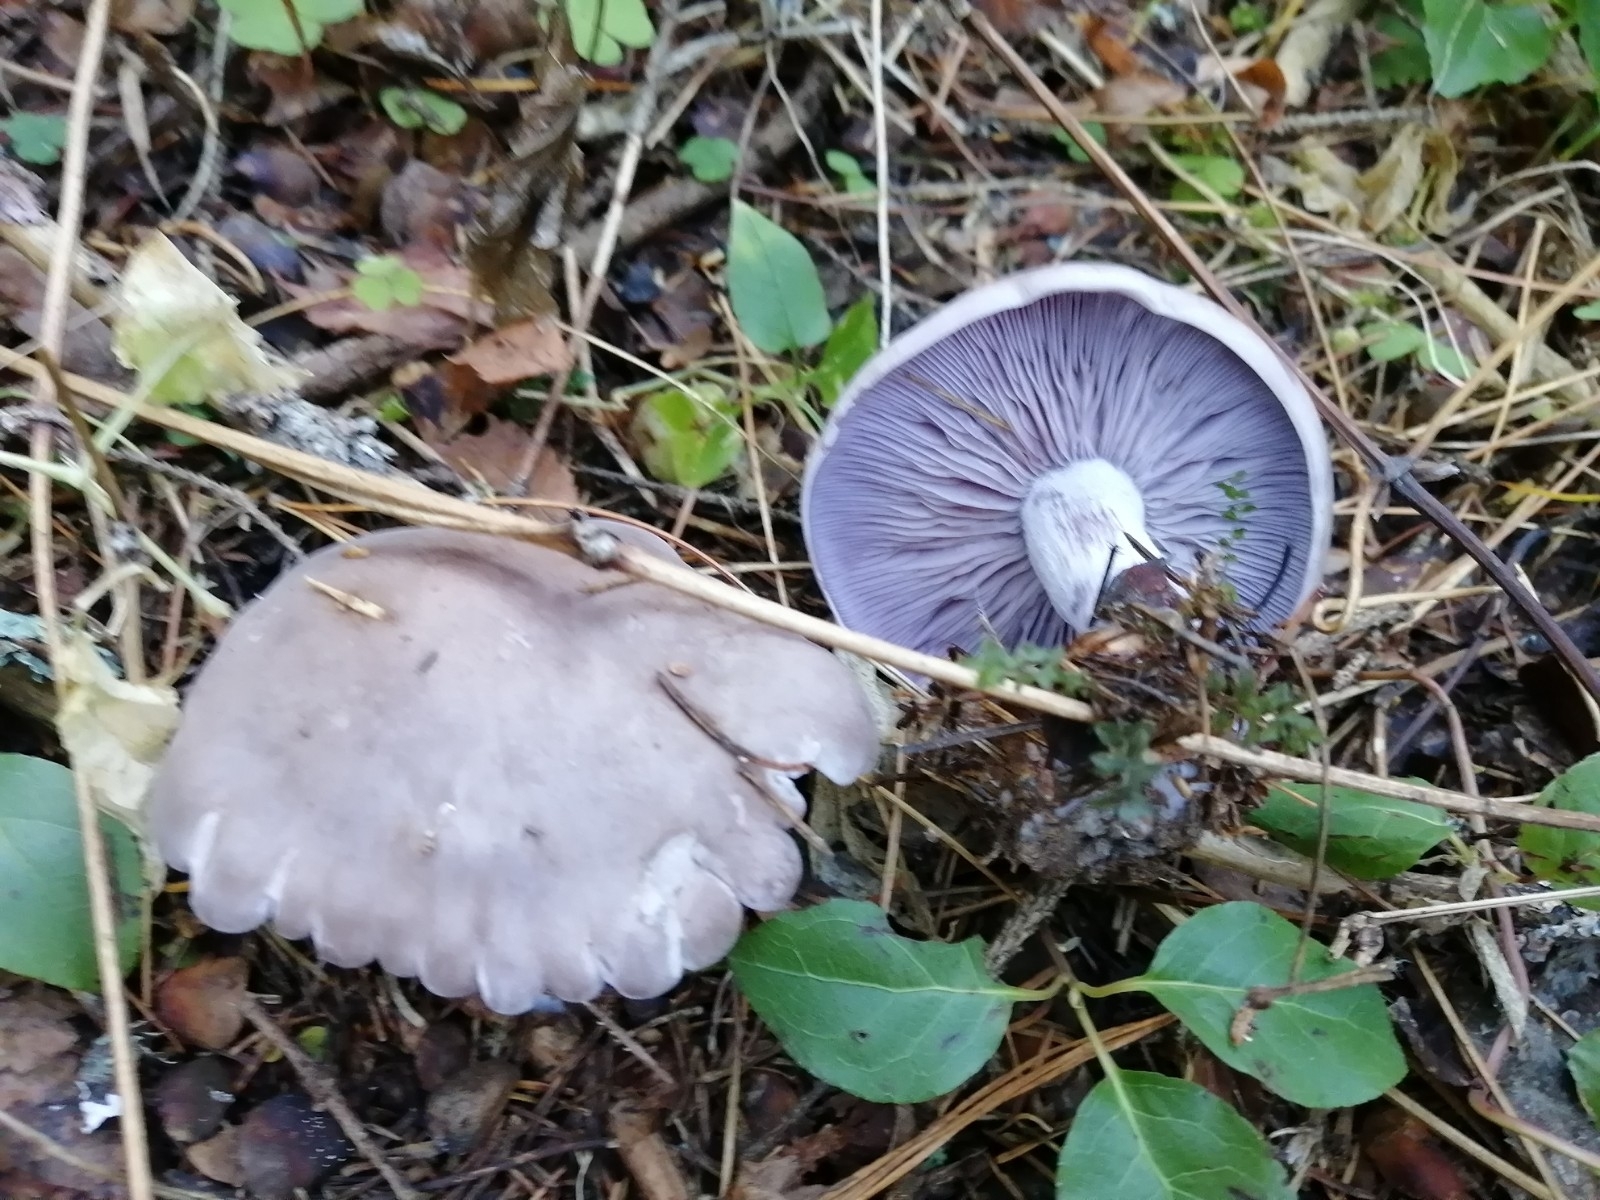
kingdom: Fungi
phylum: Basidiomycota
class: Agaricomycetes
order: Agaricales
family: Tricholomataceae
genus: Collybia
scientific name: Collybia
